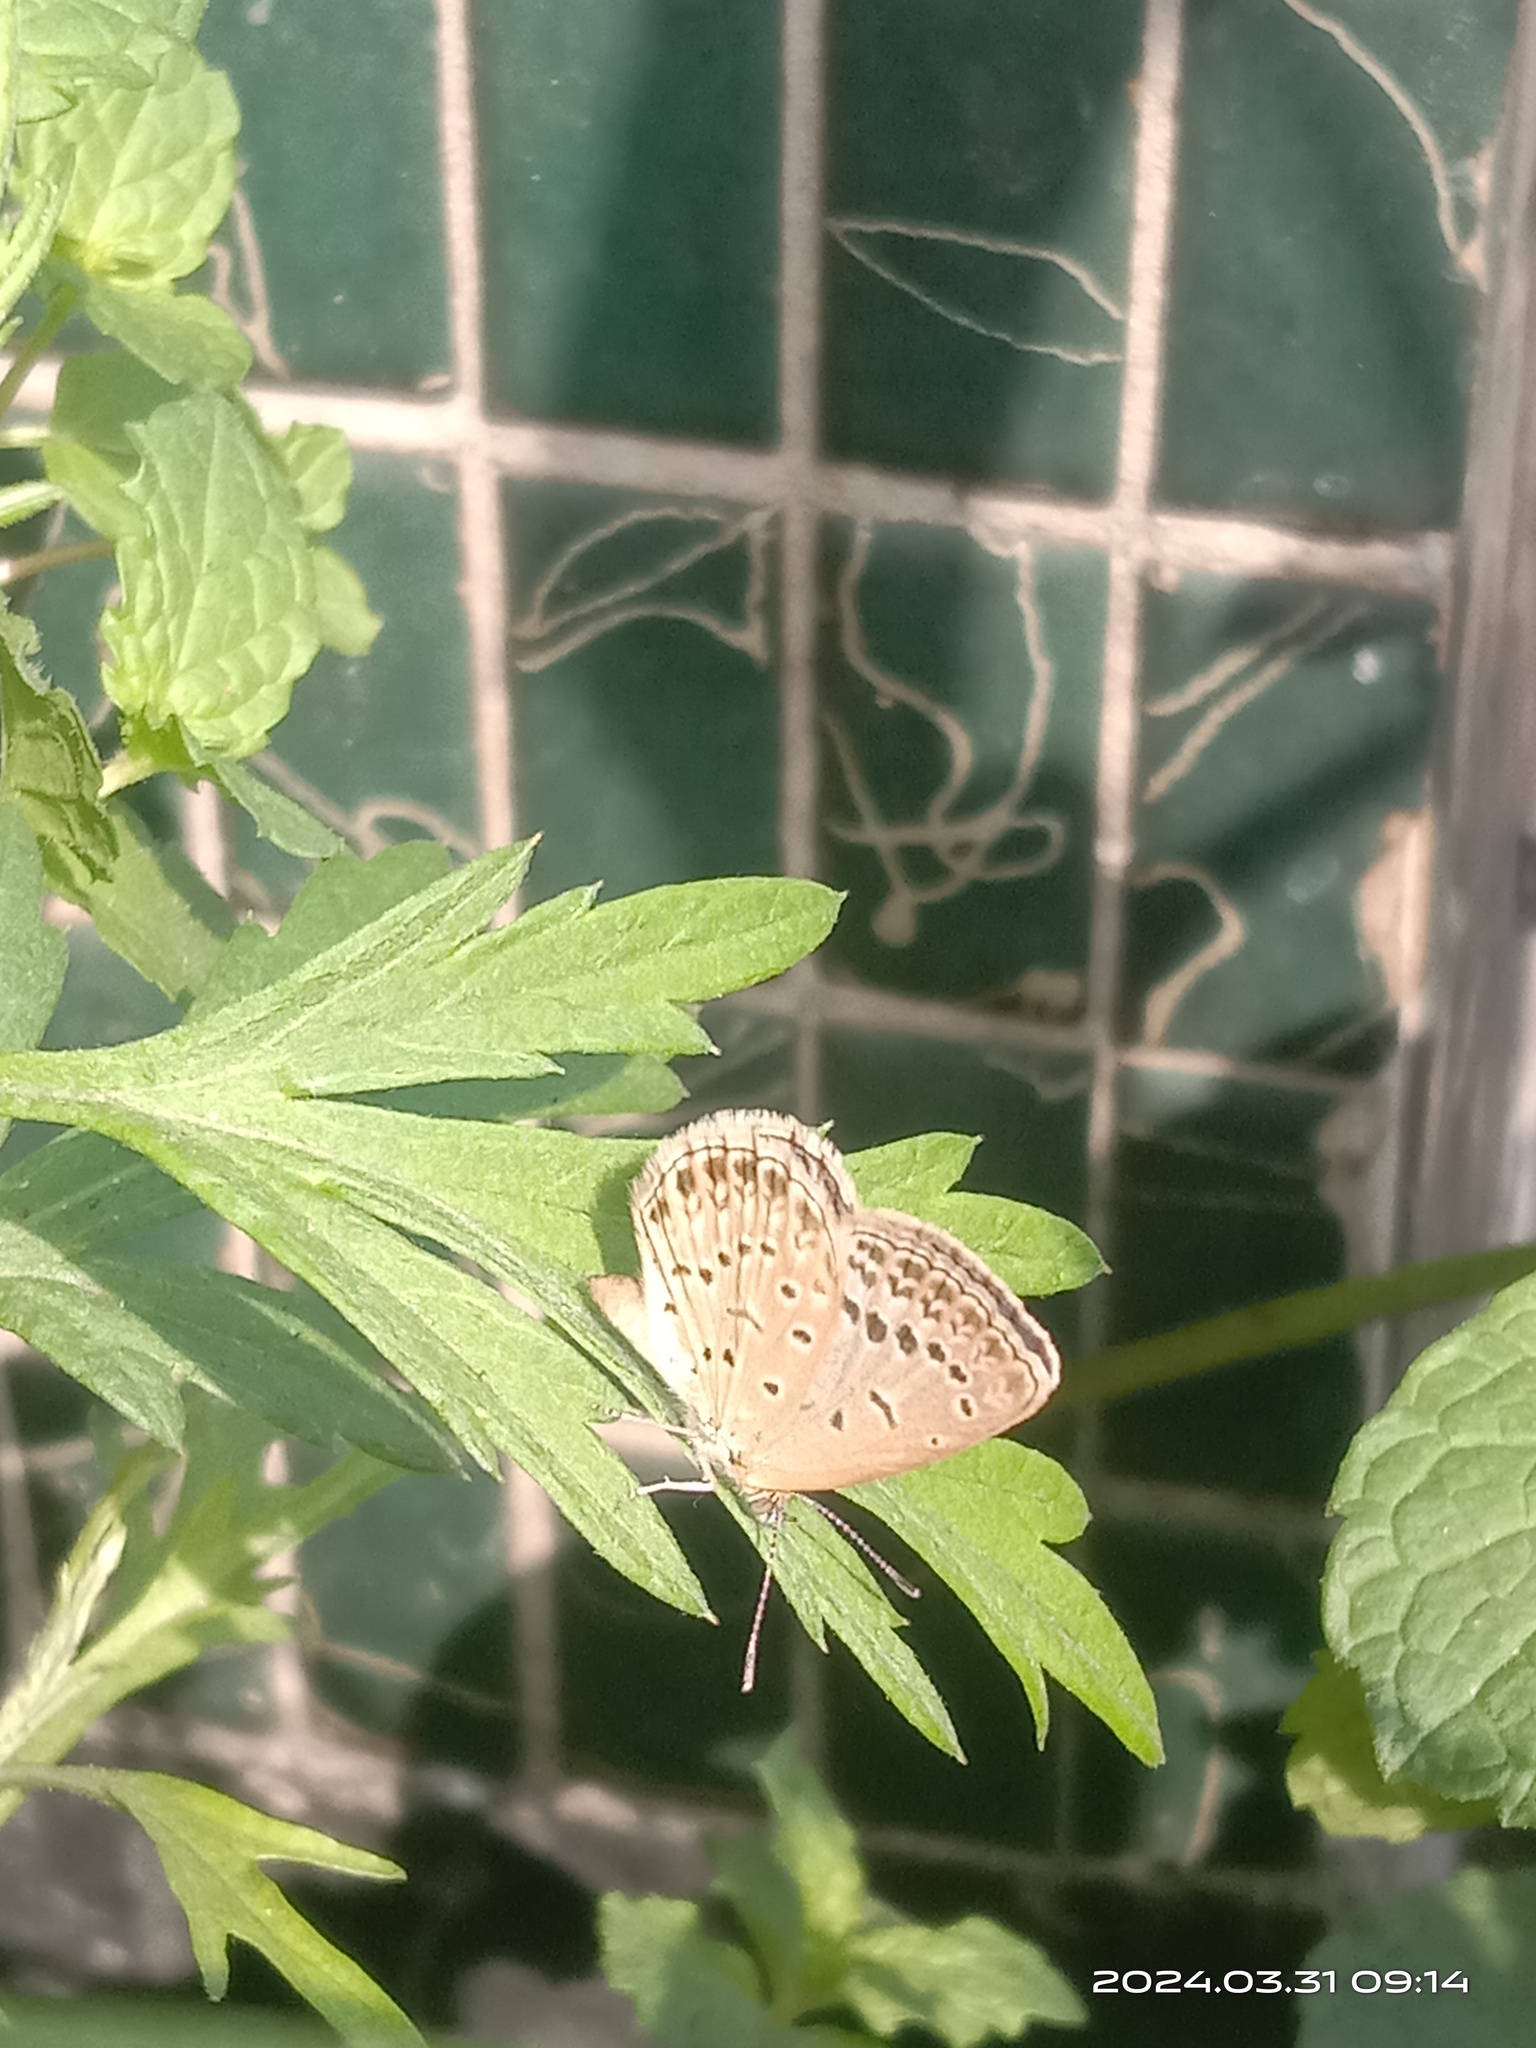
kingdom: Animalia
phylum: Arthropoda
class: Insecta
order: Lepidoptera
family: Lycaenidae
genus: Pseudozizeeria
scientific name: Pseudozizeeria maha
